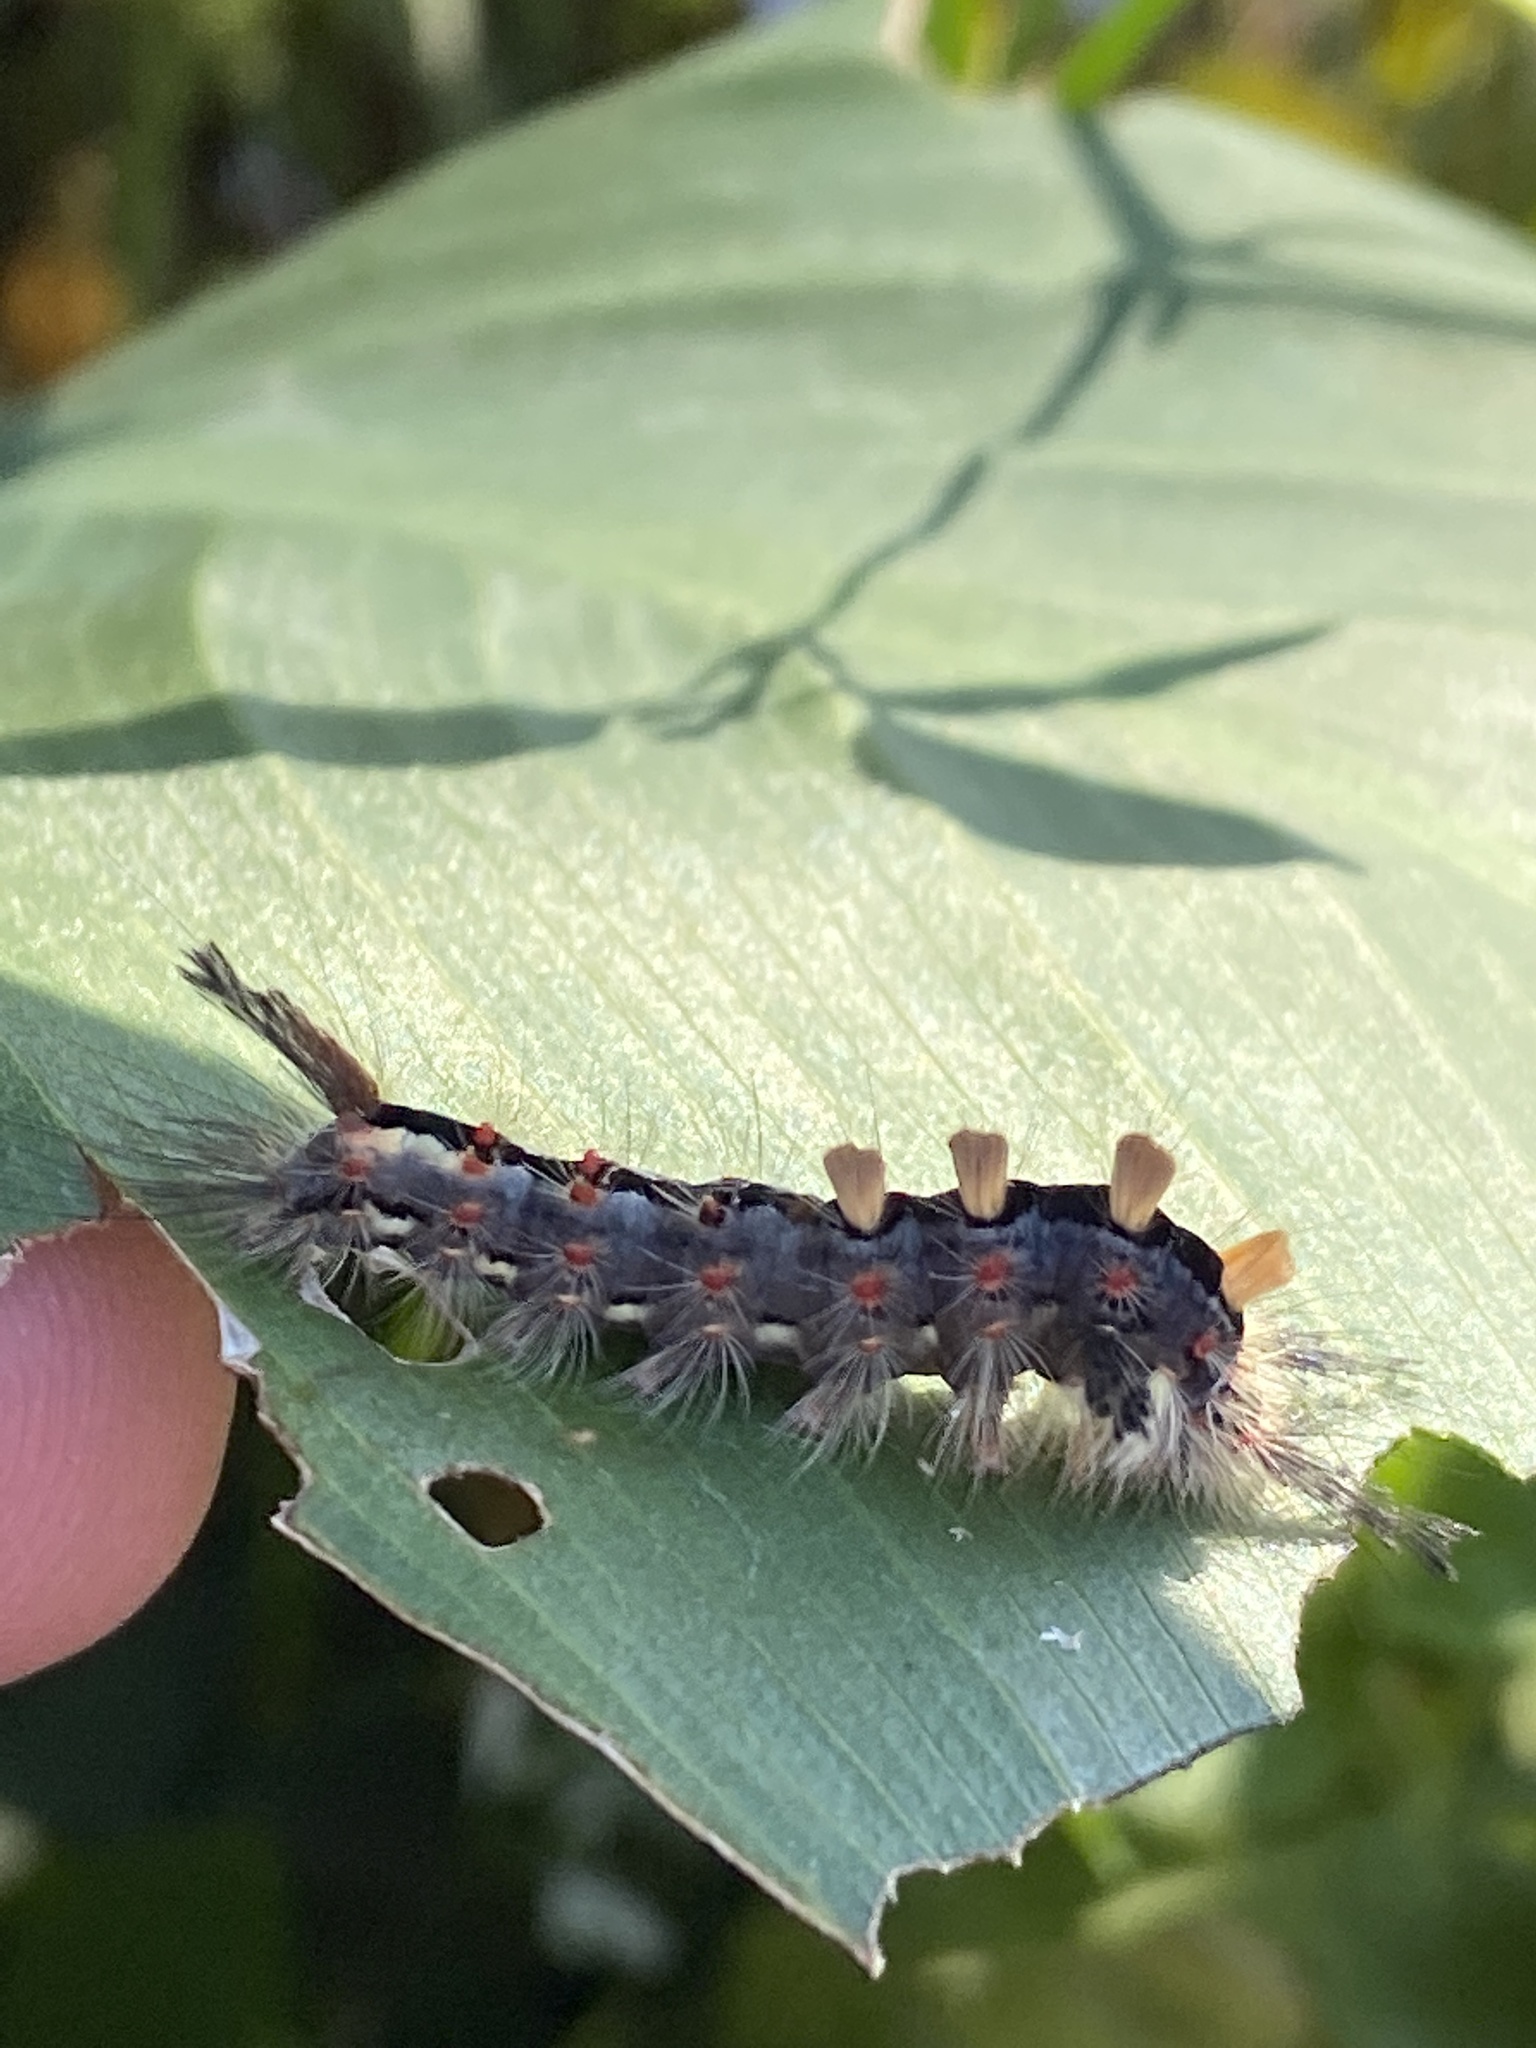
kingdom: Animalia
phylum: Arthropoda
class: Insecta
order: Lepidoptera
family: Erebidae
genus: Orgyia
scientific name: Orgyia antiqua
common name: Vapourer
